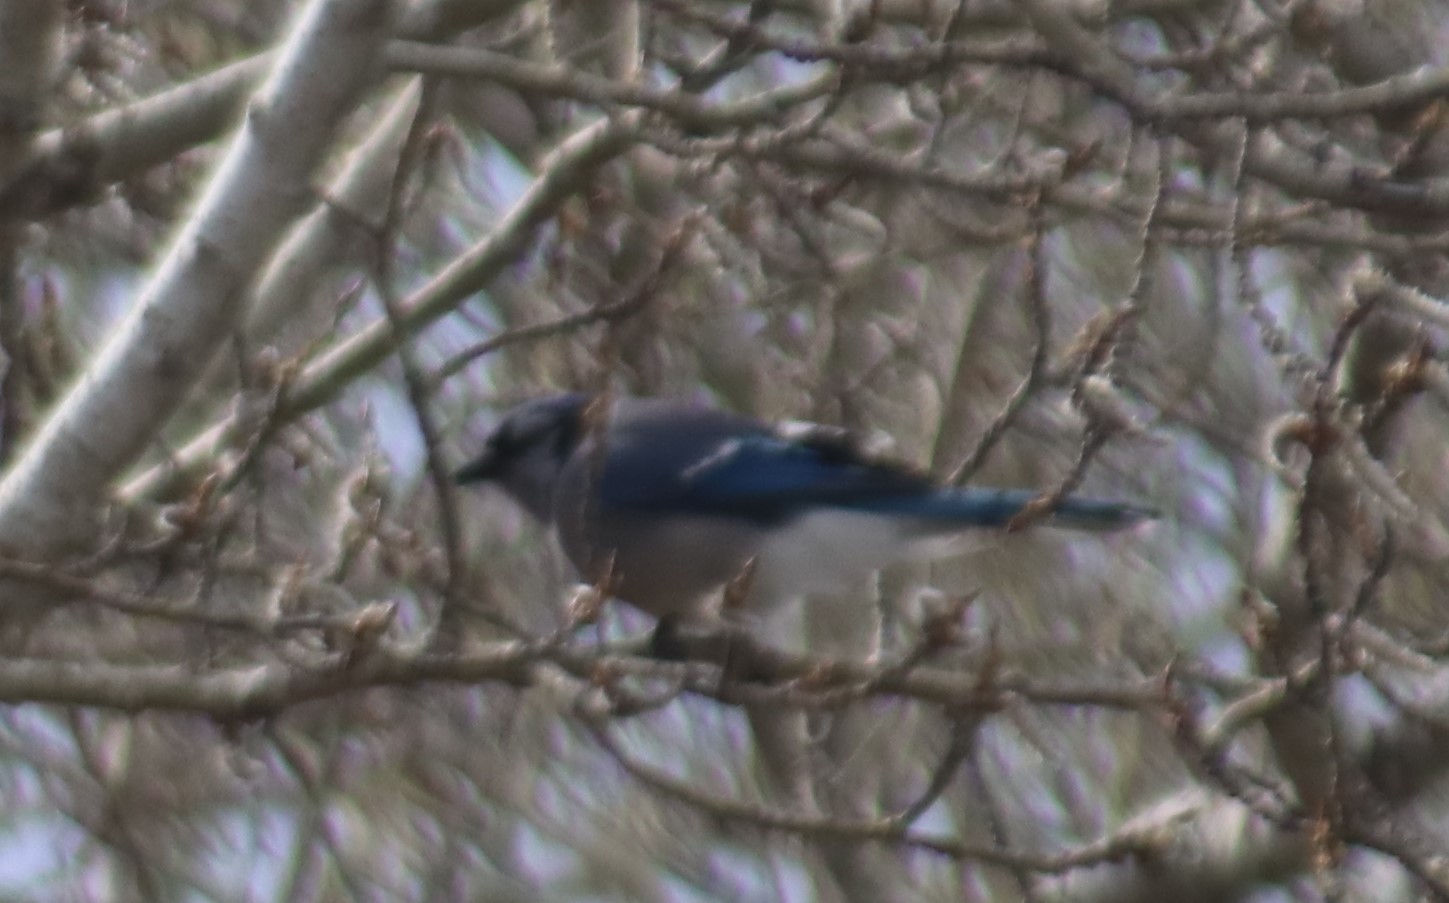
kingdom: Animalia
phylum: Chordata
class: Aves
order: Passeriformes
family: Corvidae
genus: Cyanocitta
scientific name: Cyanocitta cristata
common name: Blue jay
